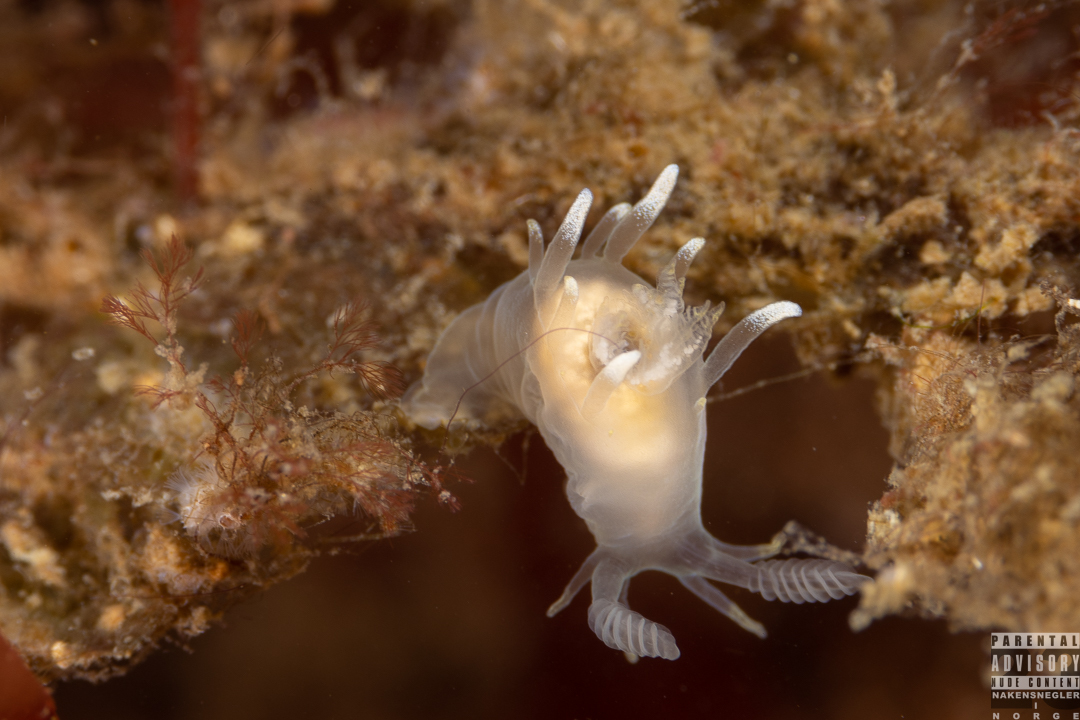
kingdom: Animalia
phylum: Mollusca
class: Gastropoda
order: Nudibranchia
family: Goniodorididae
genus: Ancula
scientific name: Ancula gibbosa
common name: Atlantic ancula
